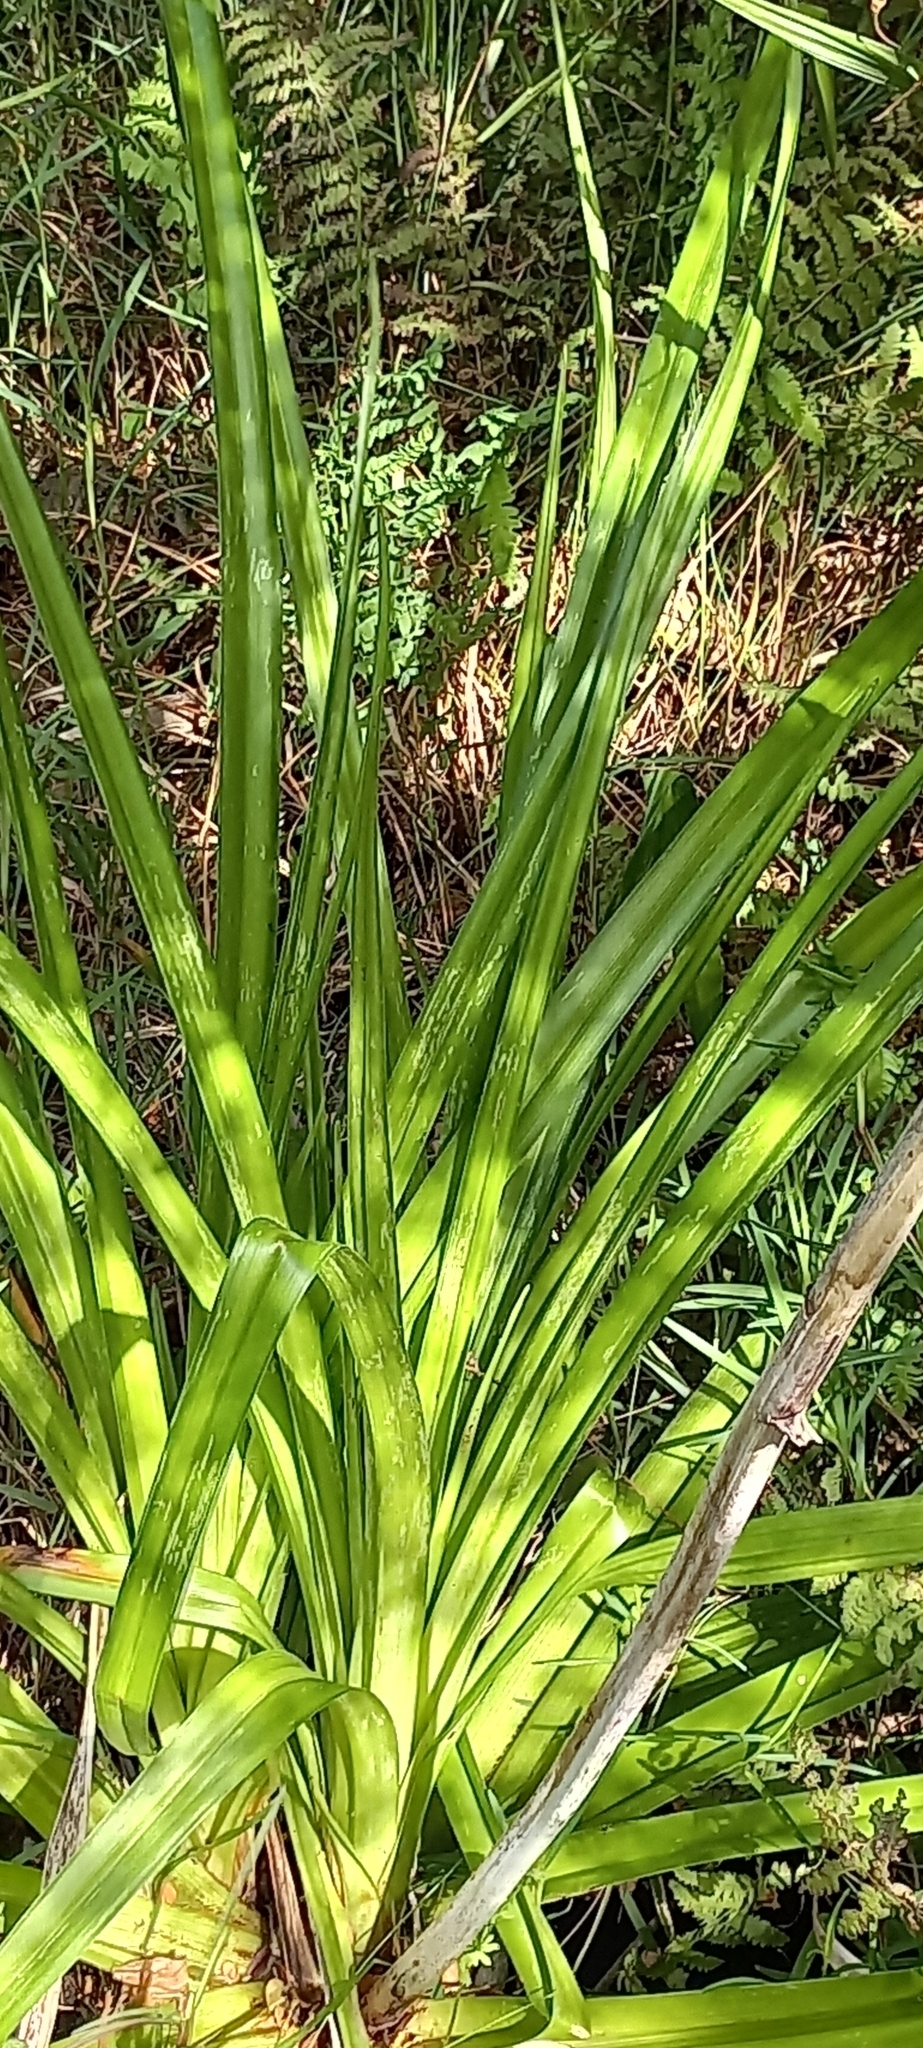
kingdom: Plantae
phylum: Tracheophyta
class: Liliopsida
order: Asparagales
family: Asphodelaceae
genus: Kniphofia
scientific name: Kniphofia uvaria
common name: Red-hot-poker
